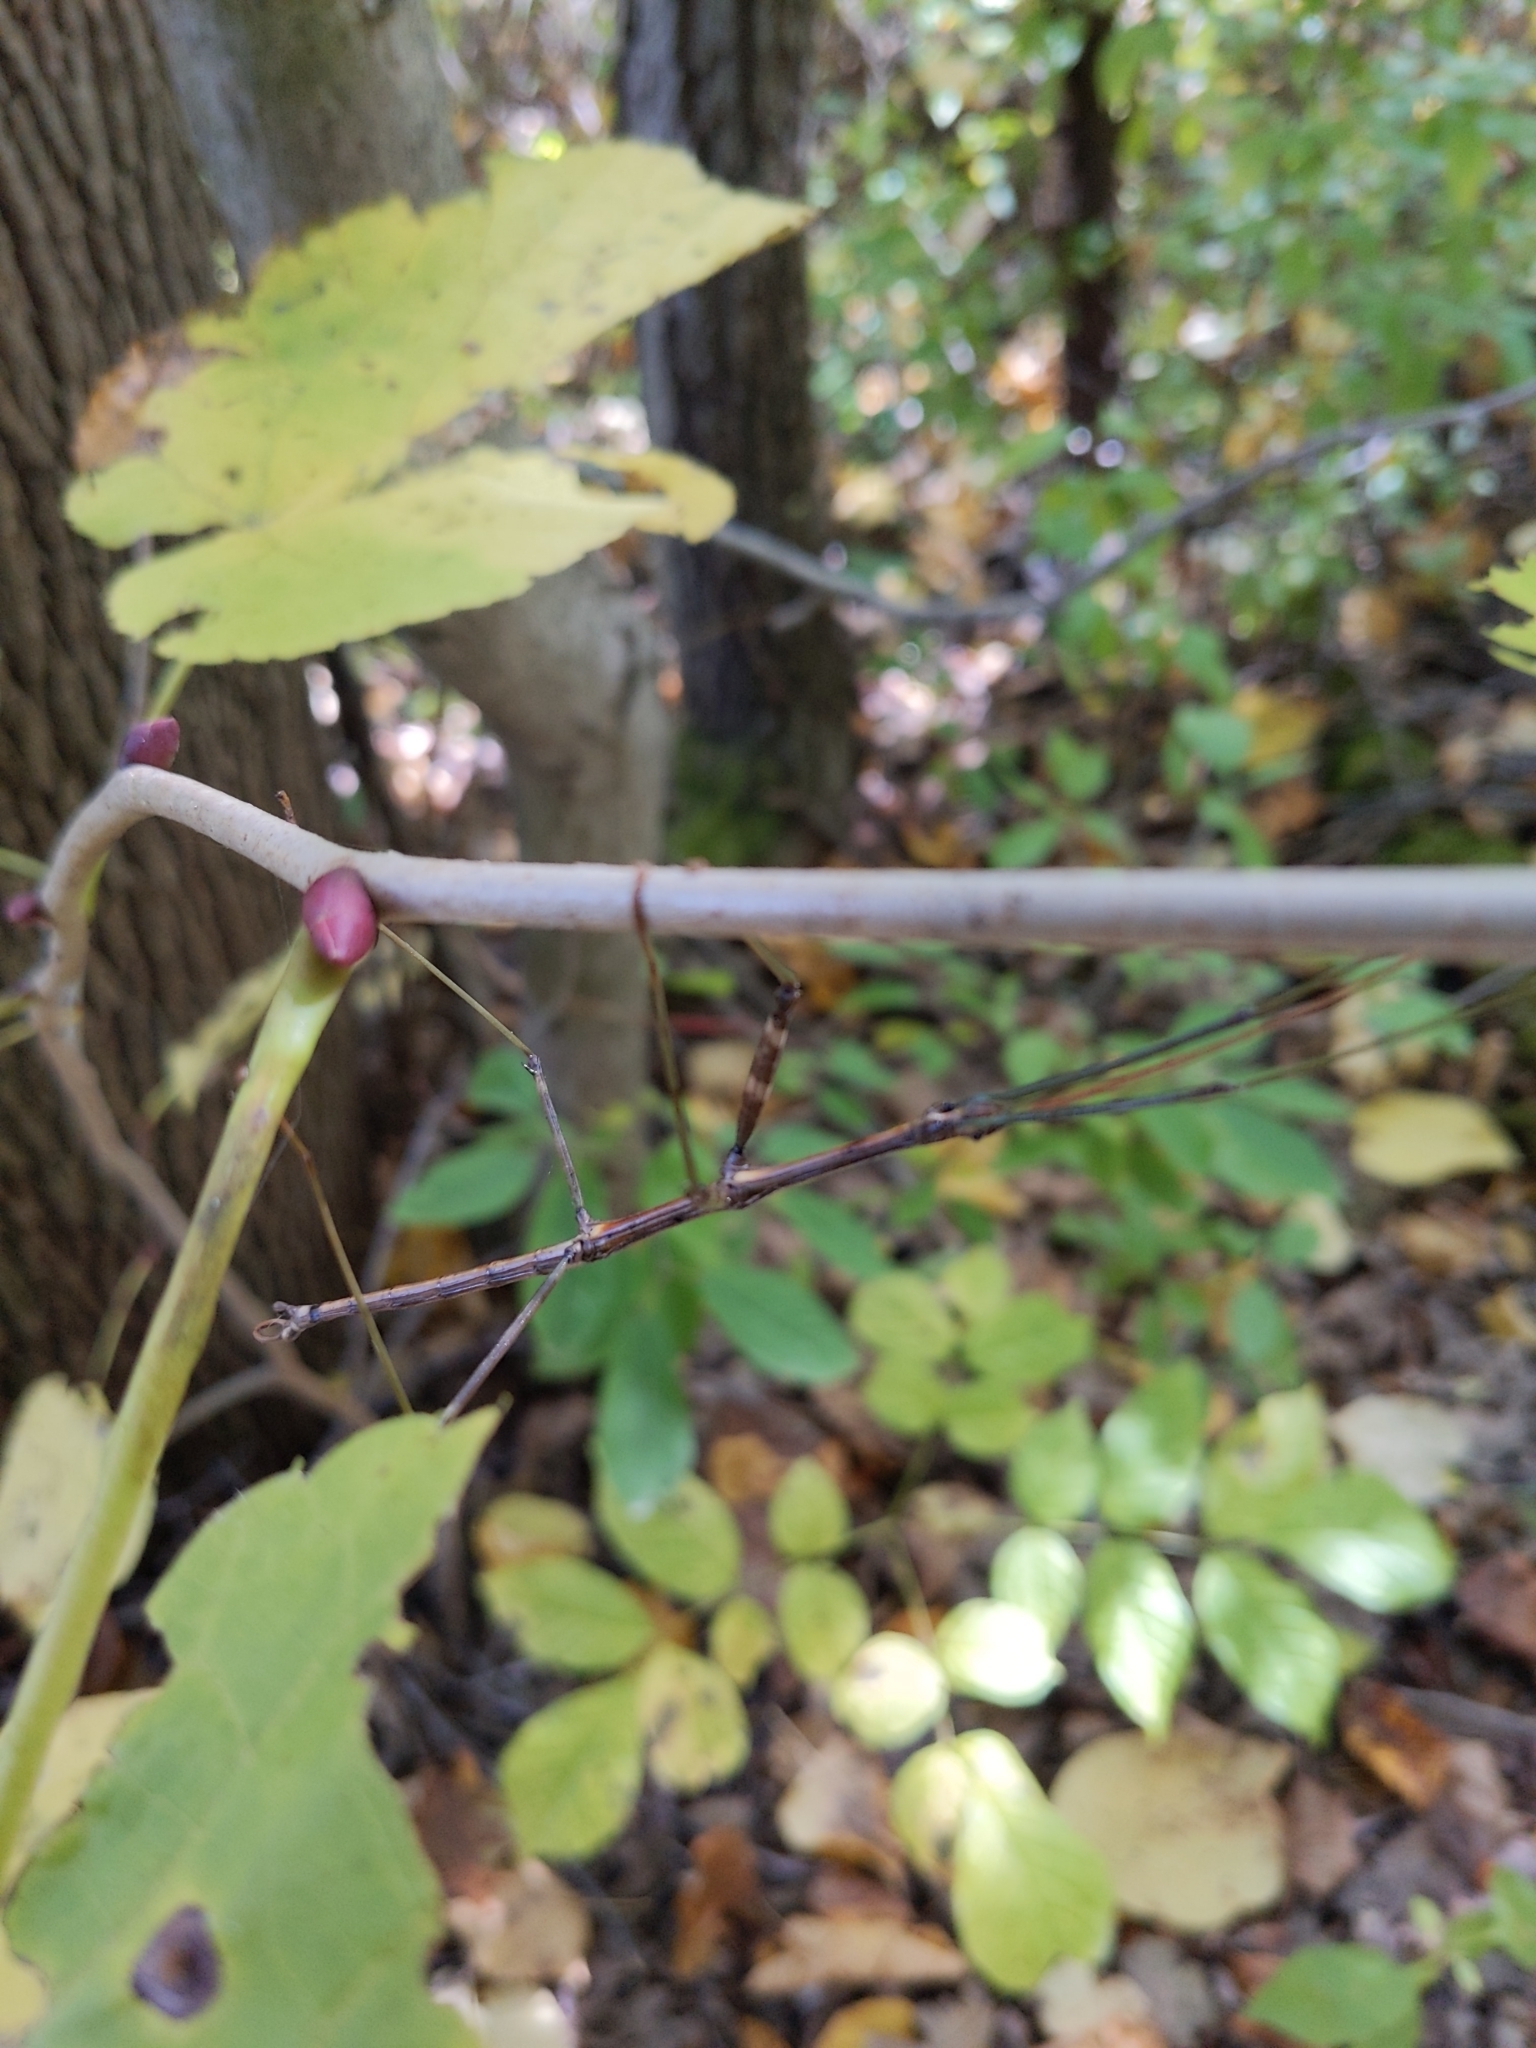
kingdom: Animalia
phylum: Arthropoda
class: Insecta
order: Phasmida
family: Diapheromeridae
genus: Diapheromera
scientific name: Diapheromera femorata
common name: Common american walkingstick
